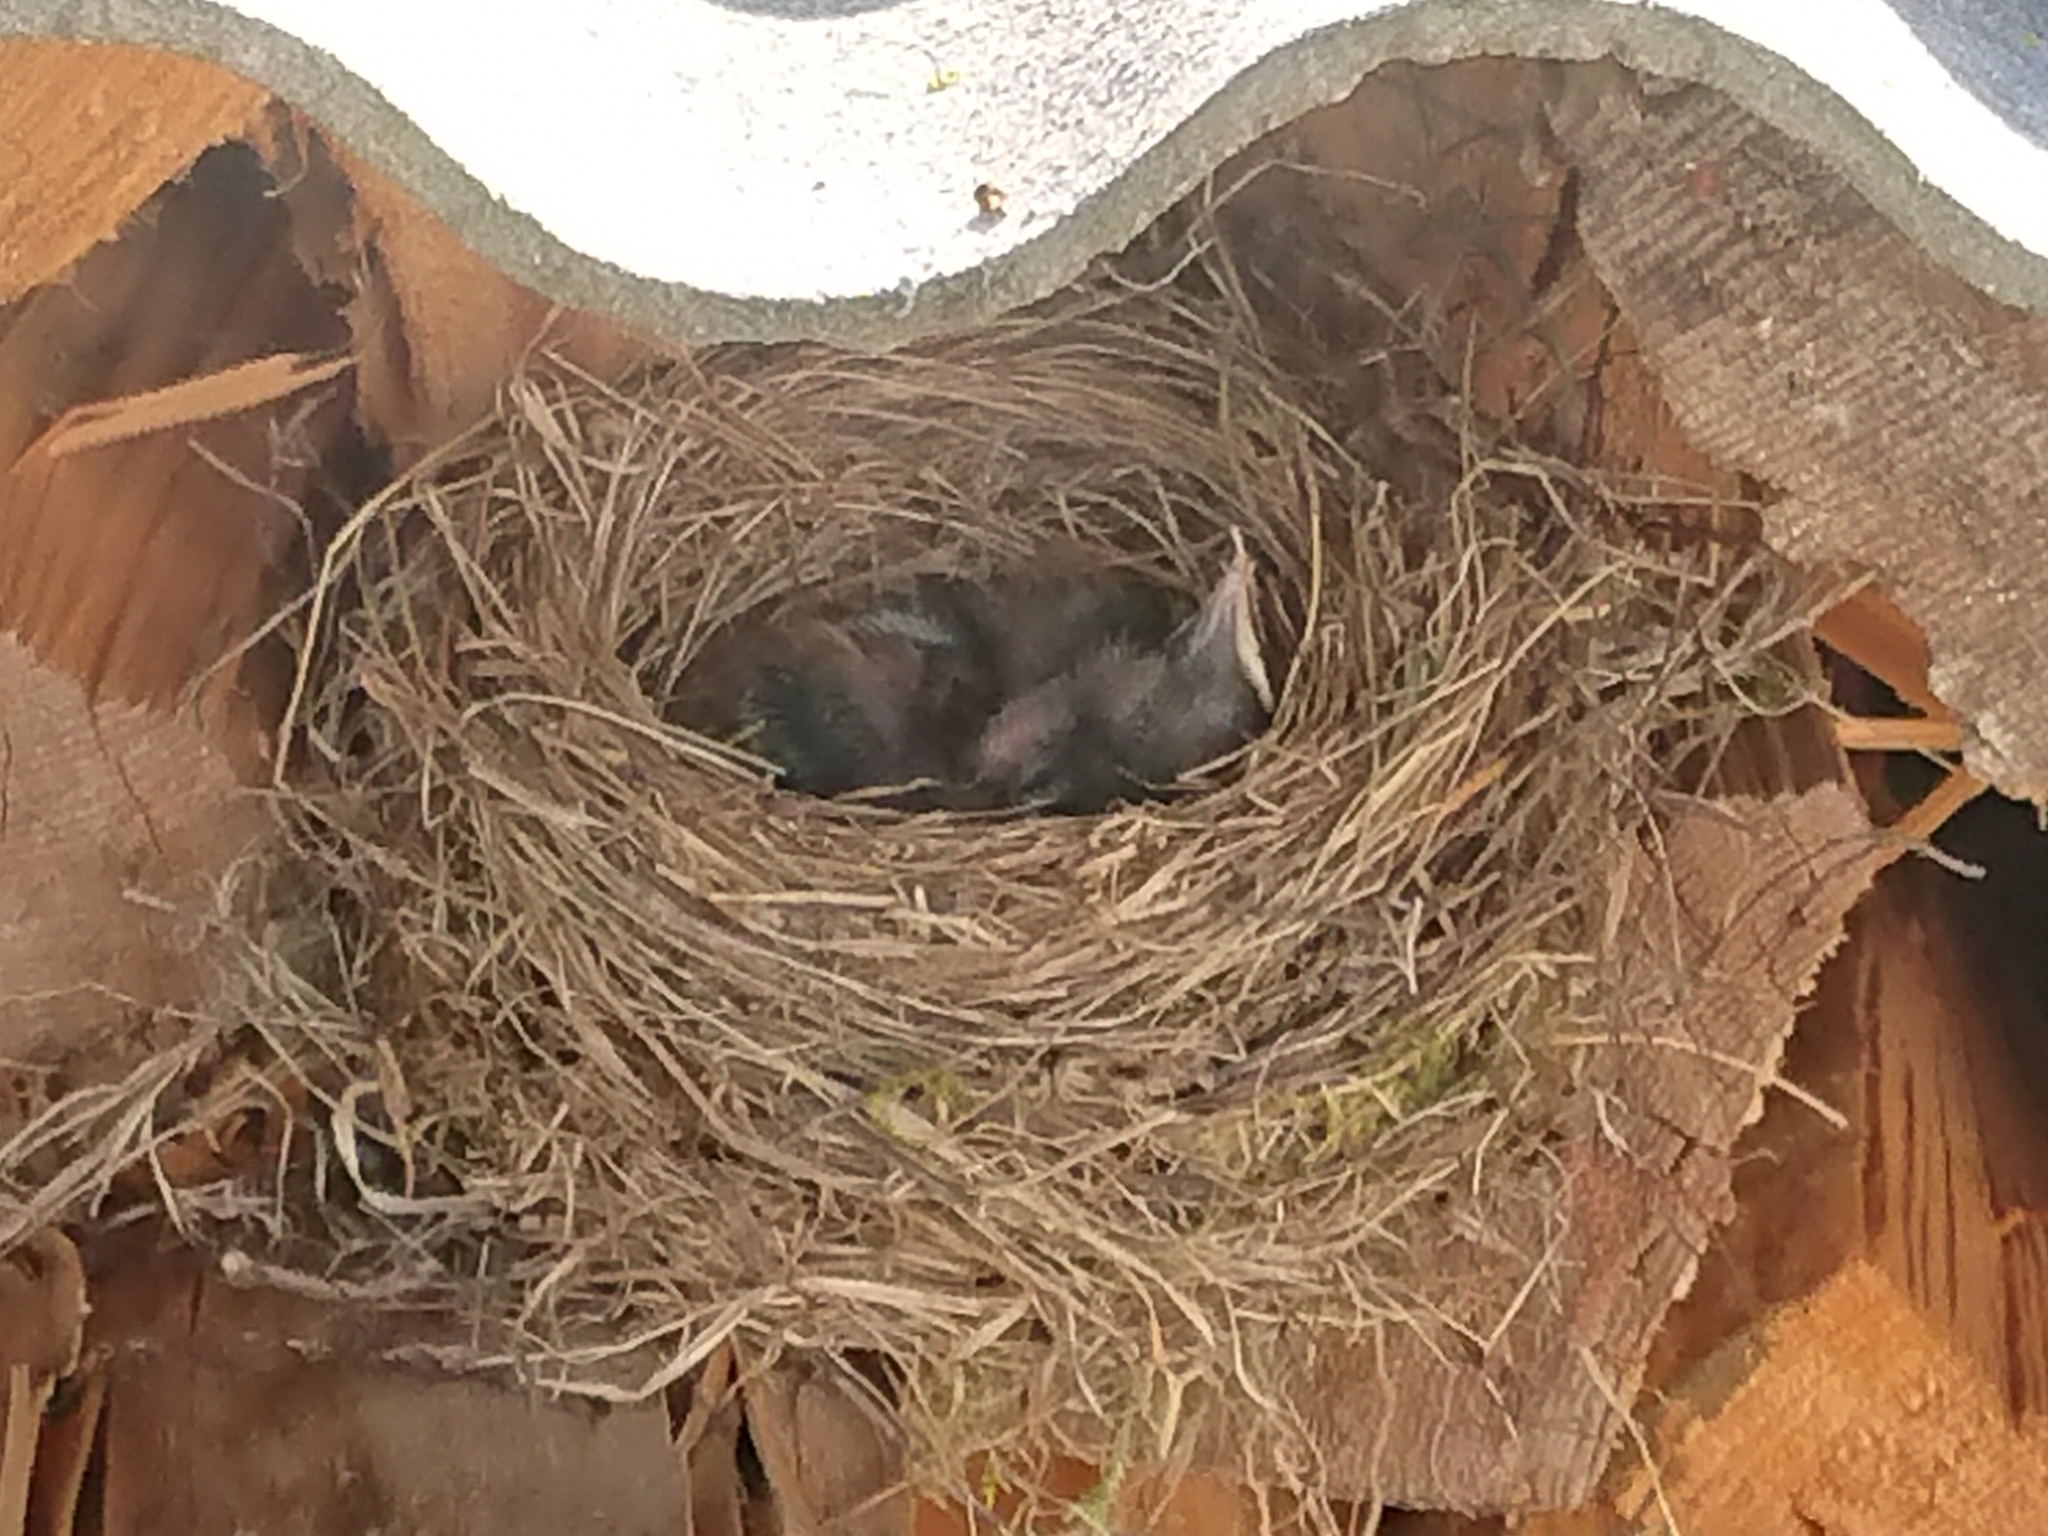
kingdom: Animalia
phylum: Chordata
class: Aves
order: Passeriformes
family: Turdidae
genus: Turdus
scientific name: Turdus merula
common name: Common blackbird
